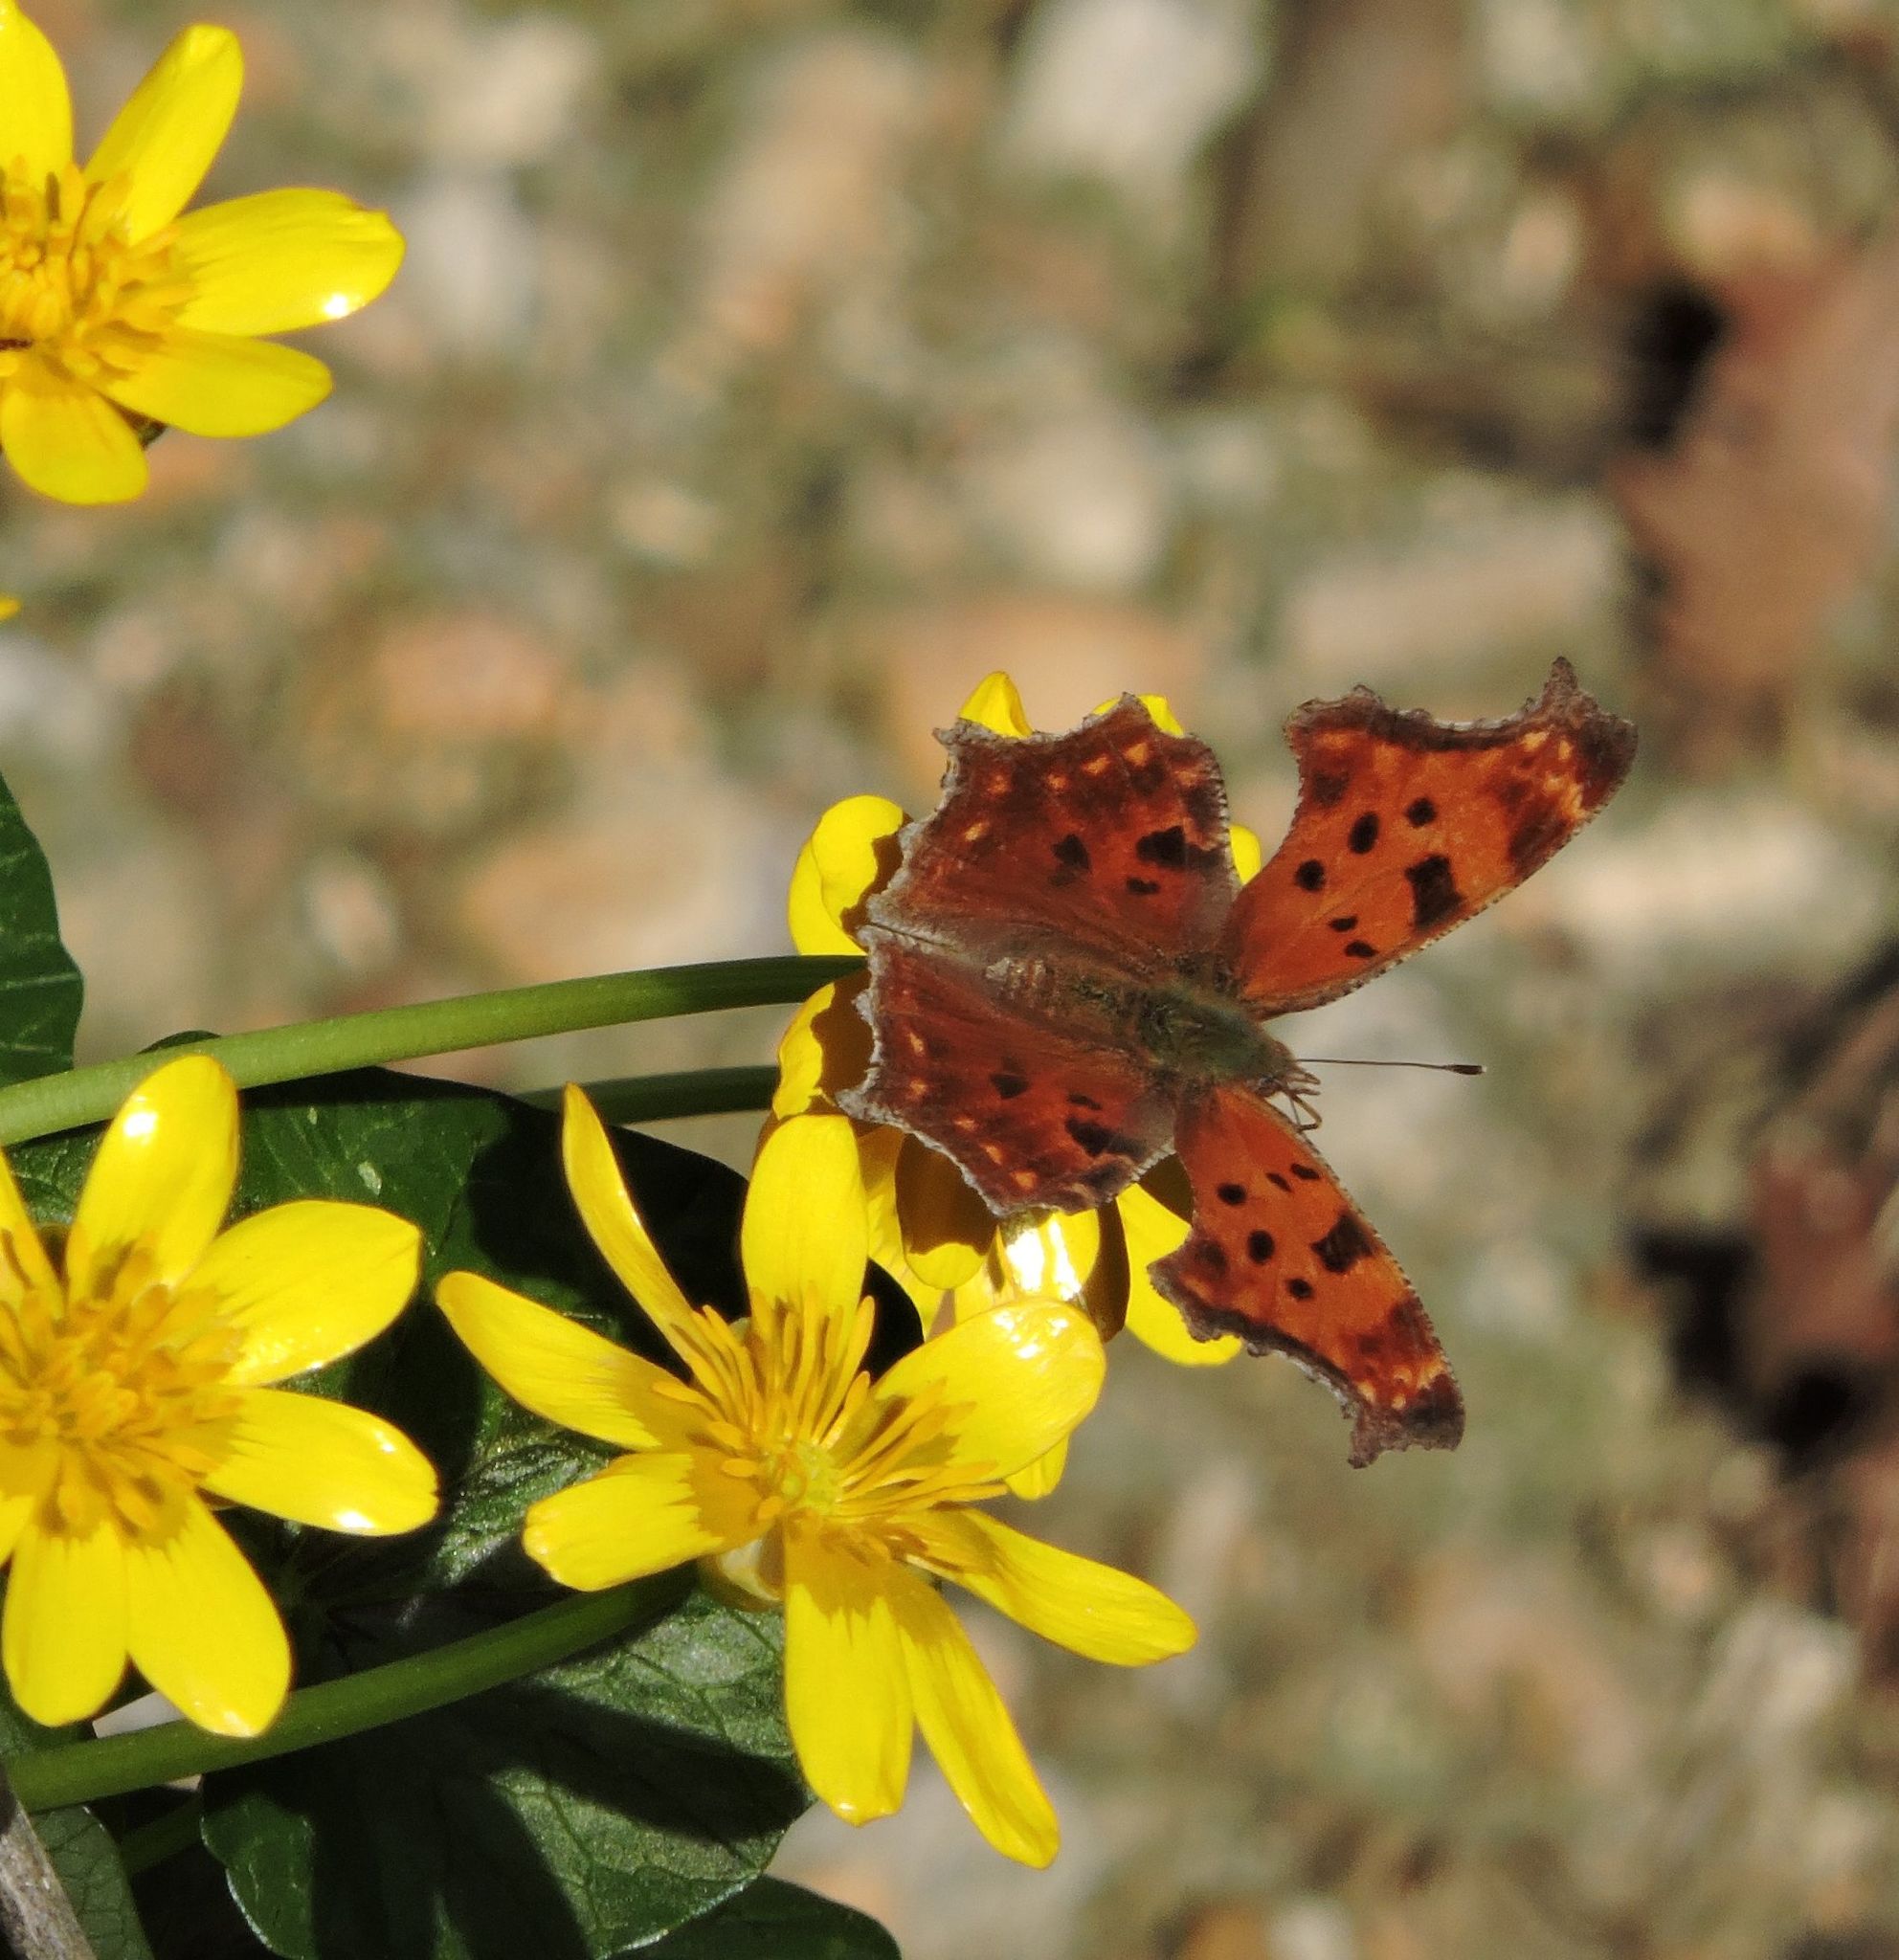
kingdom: Animalia
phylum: Arthropoda
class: Insecta
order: Lepidoptera
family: Nymphalidae
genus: Polygonia
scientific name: Polygonia comma
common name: Eastern comma
